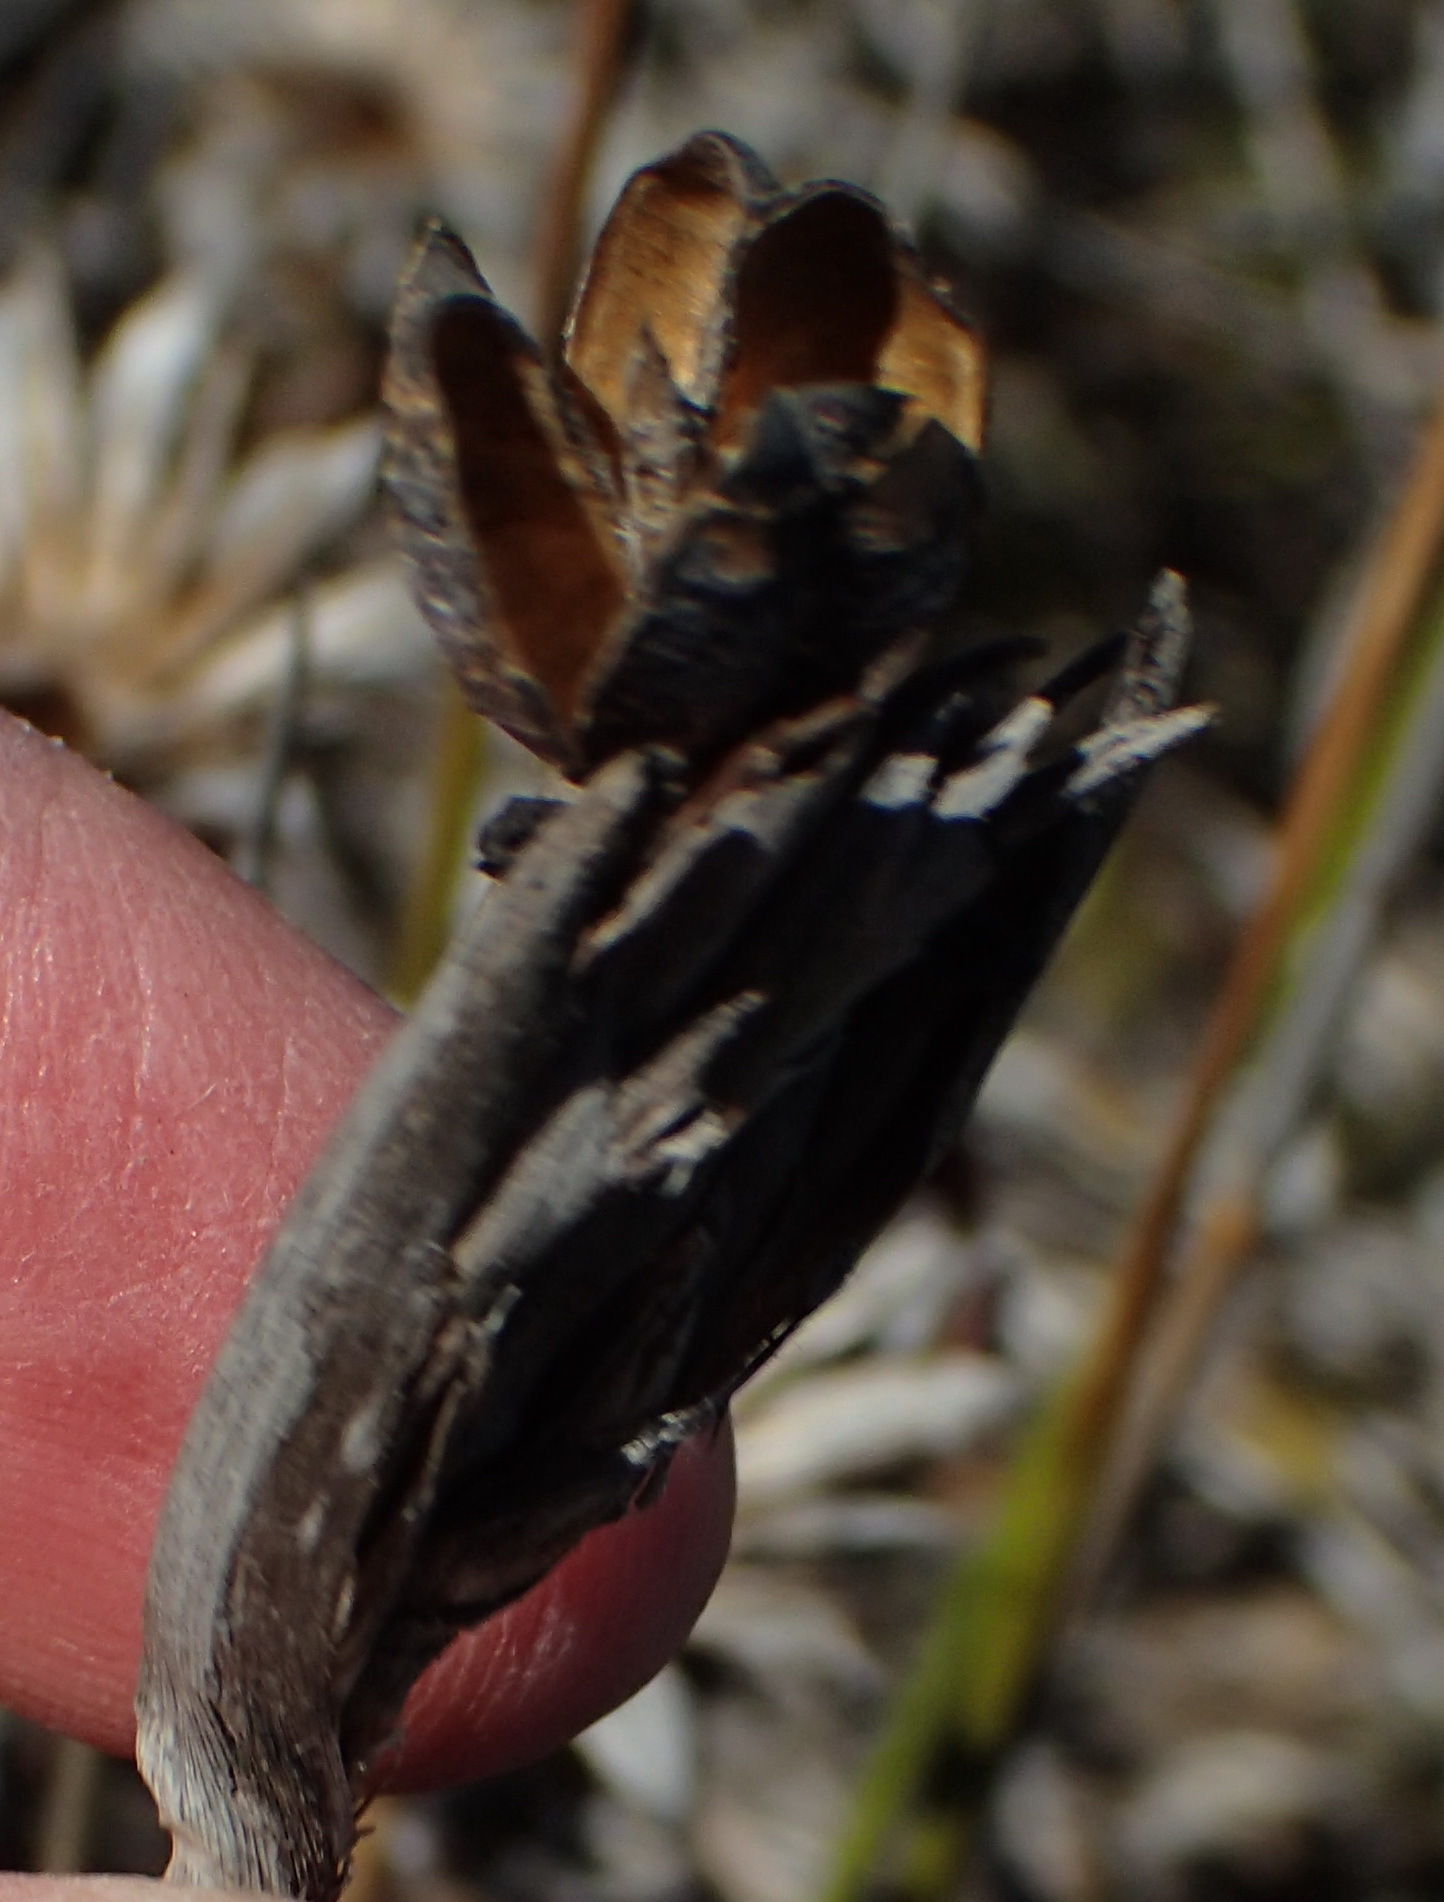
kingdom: Plantae
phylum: Tracheophyta
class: Liliopsida
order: Asparagales
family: Iridaceae
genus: Bobartia
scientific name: Bobartia robusta
